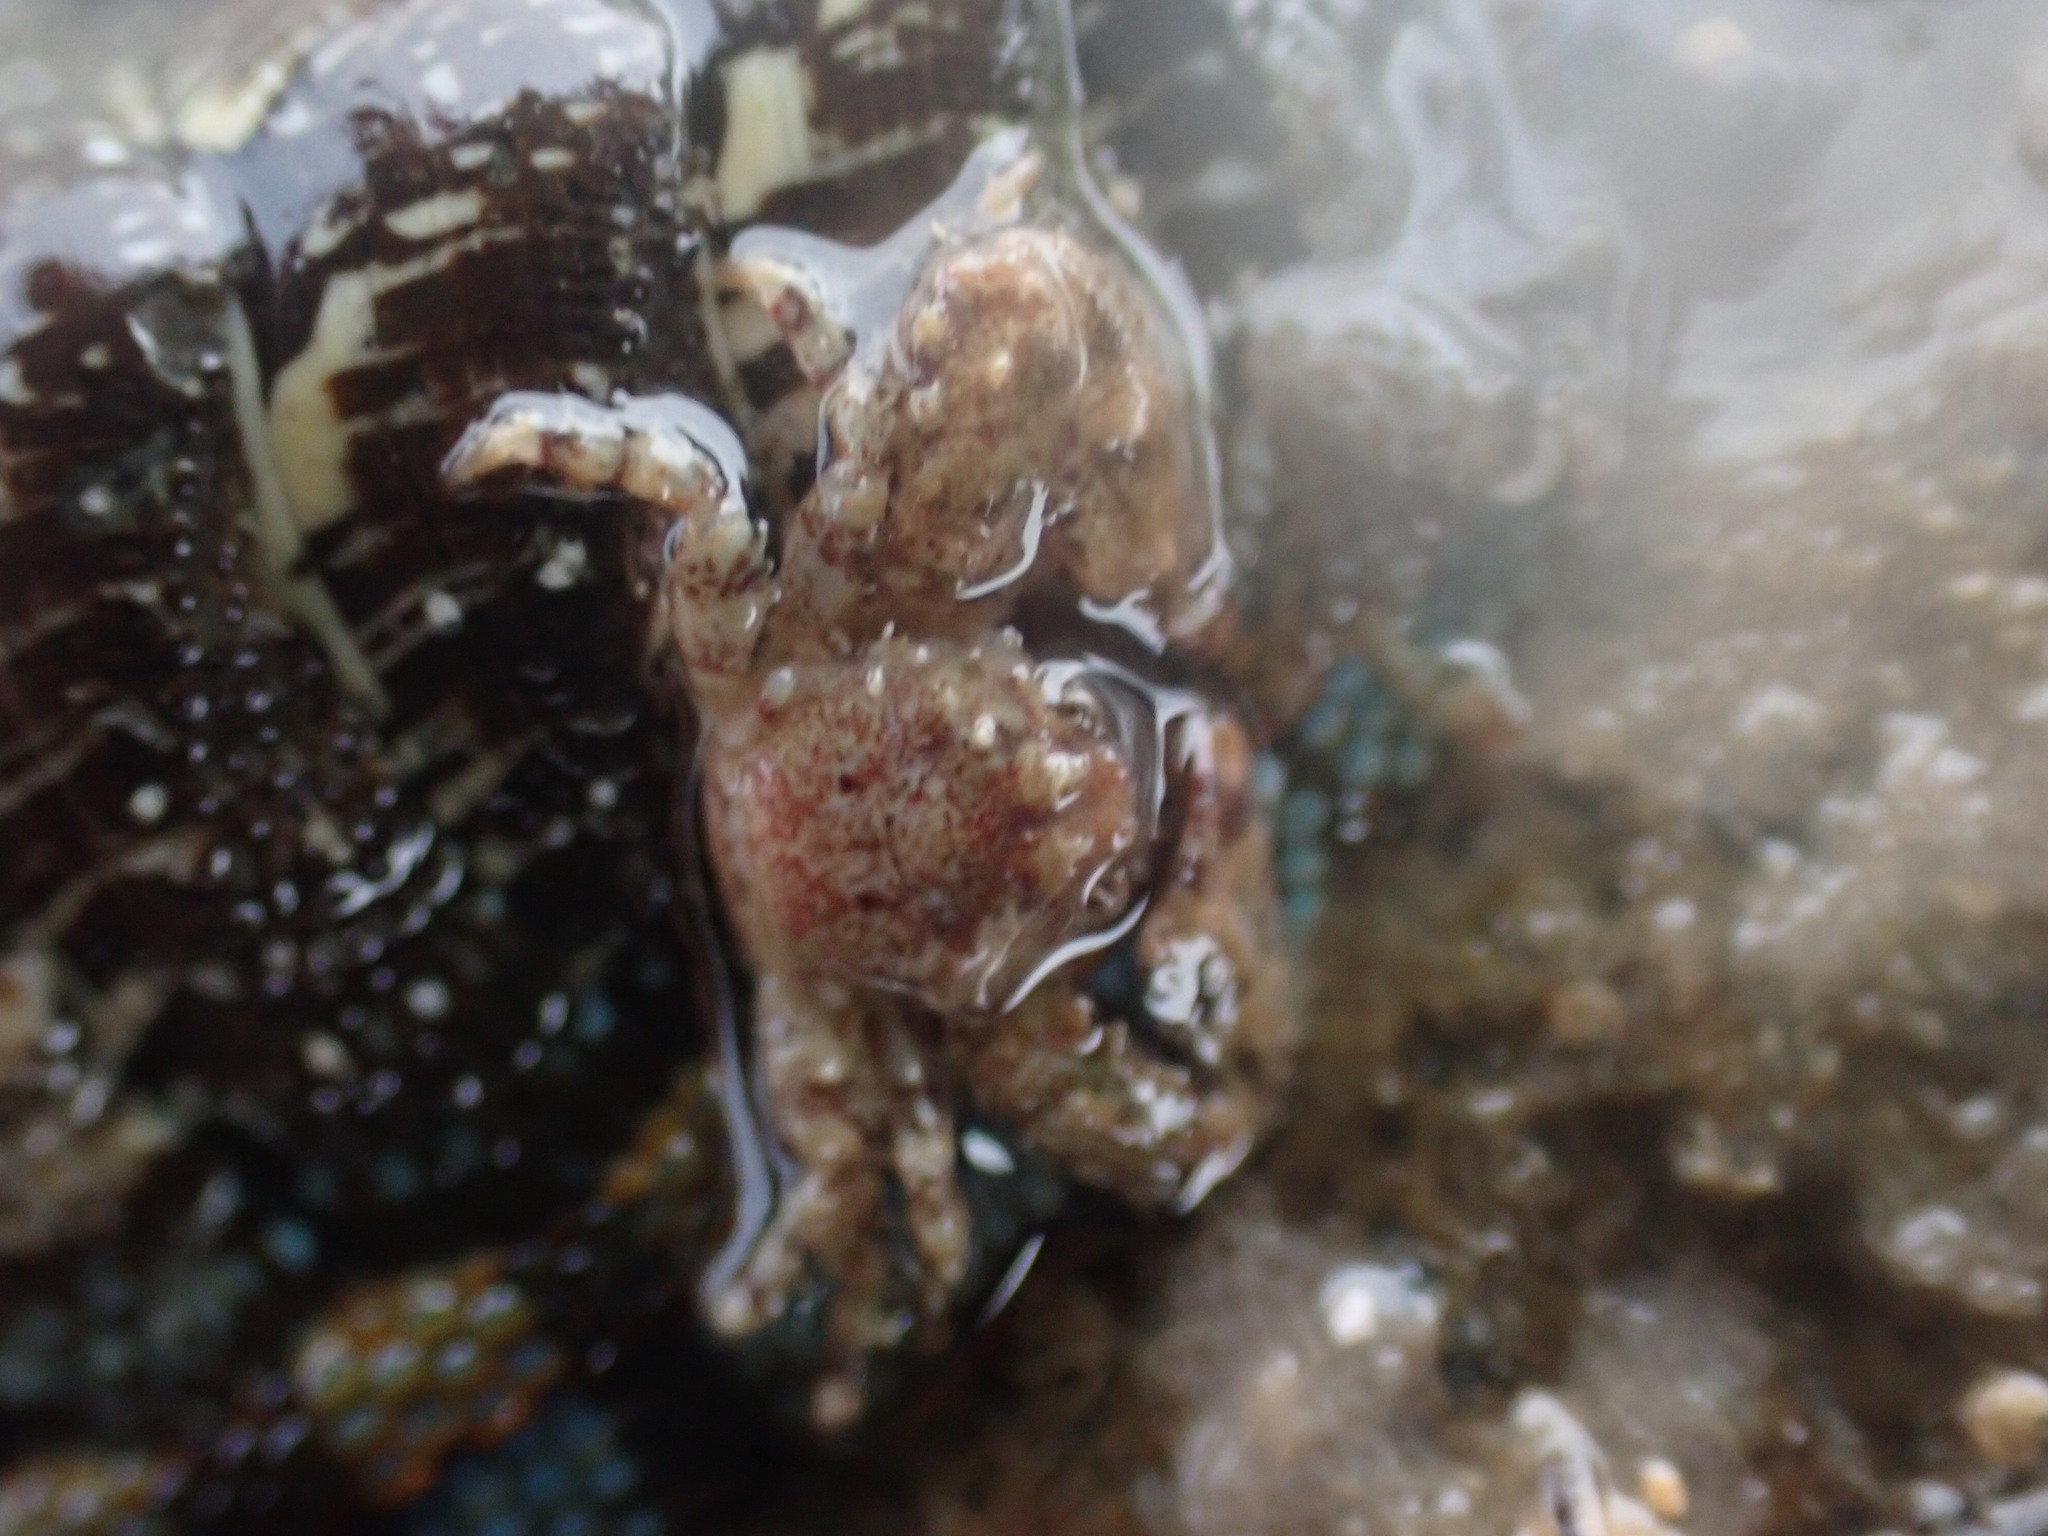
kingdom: Animalia
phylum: Arthropoda
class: Malacostraca
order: Decapoda
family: Porcellanidae
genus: Petrolisthes
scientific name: Petrolisthes novaezelandiae
